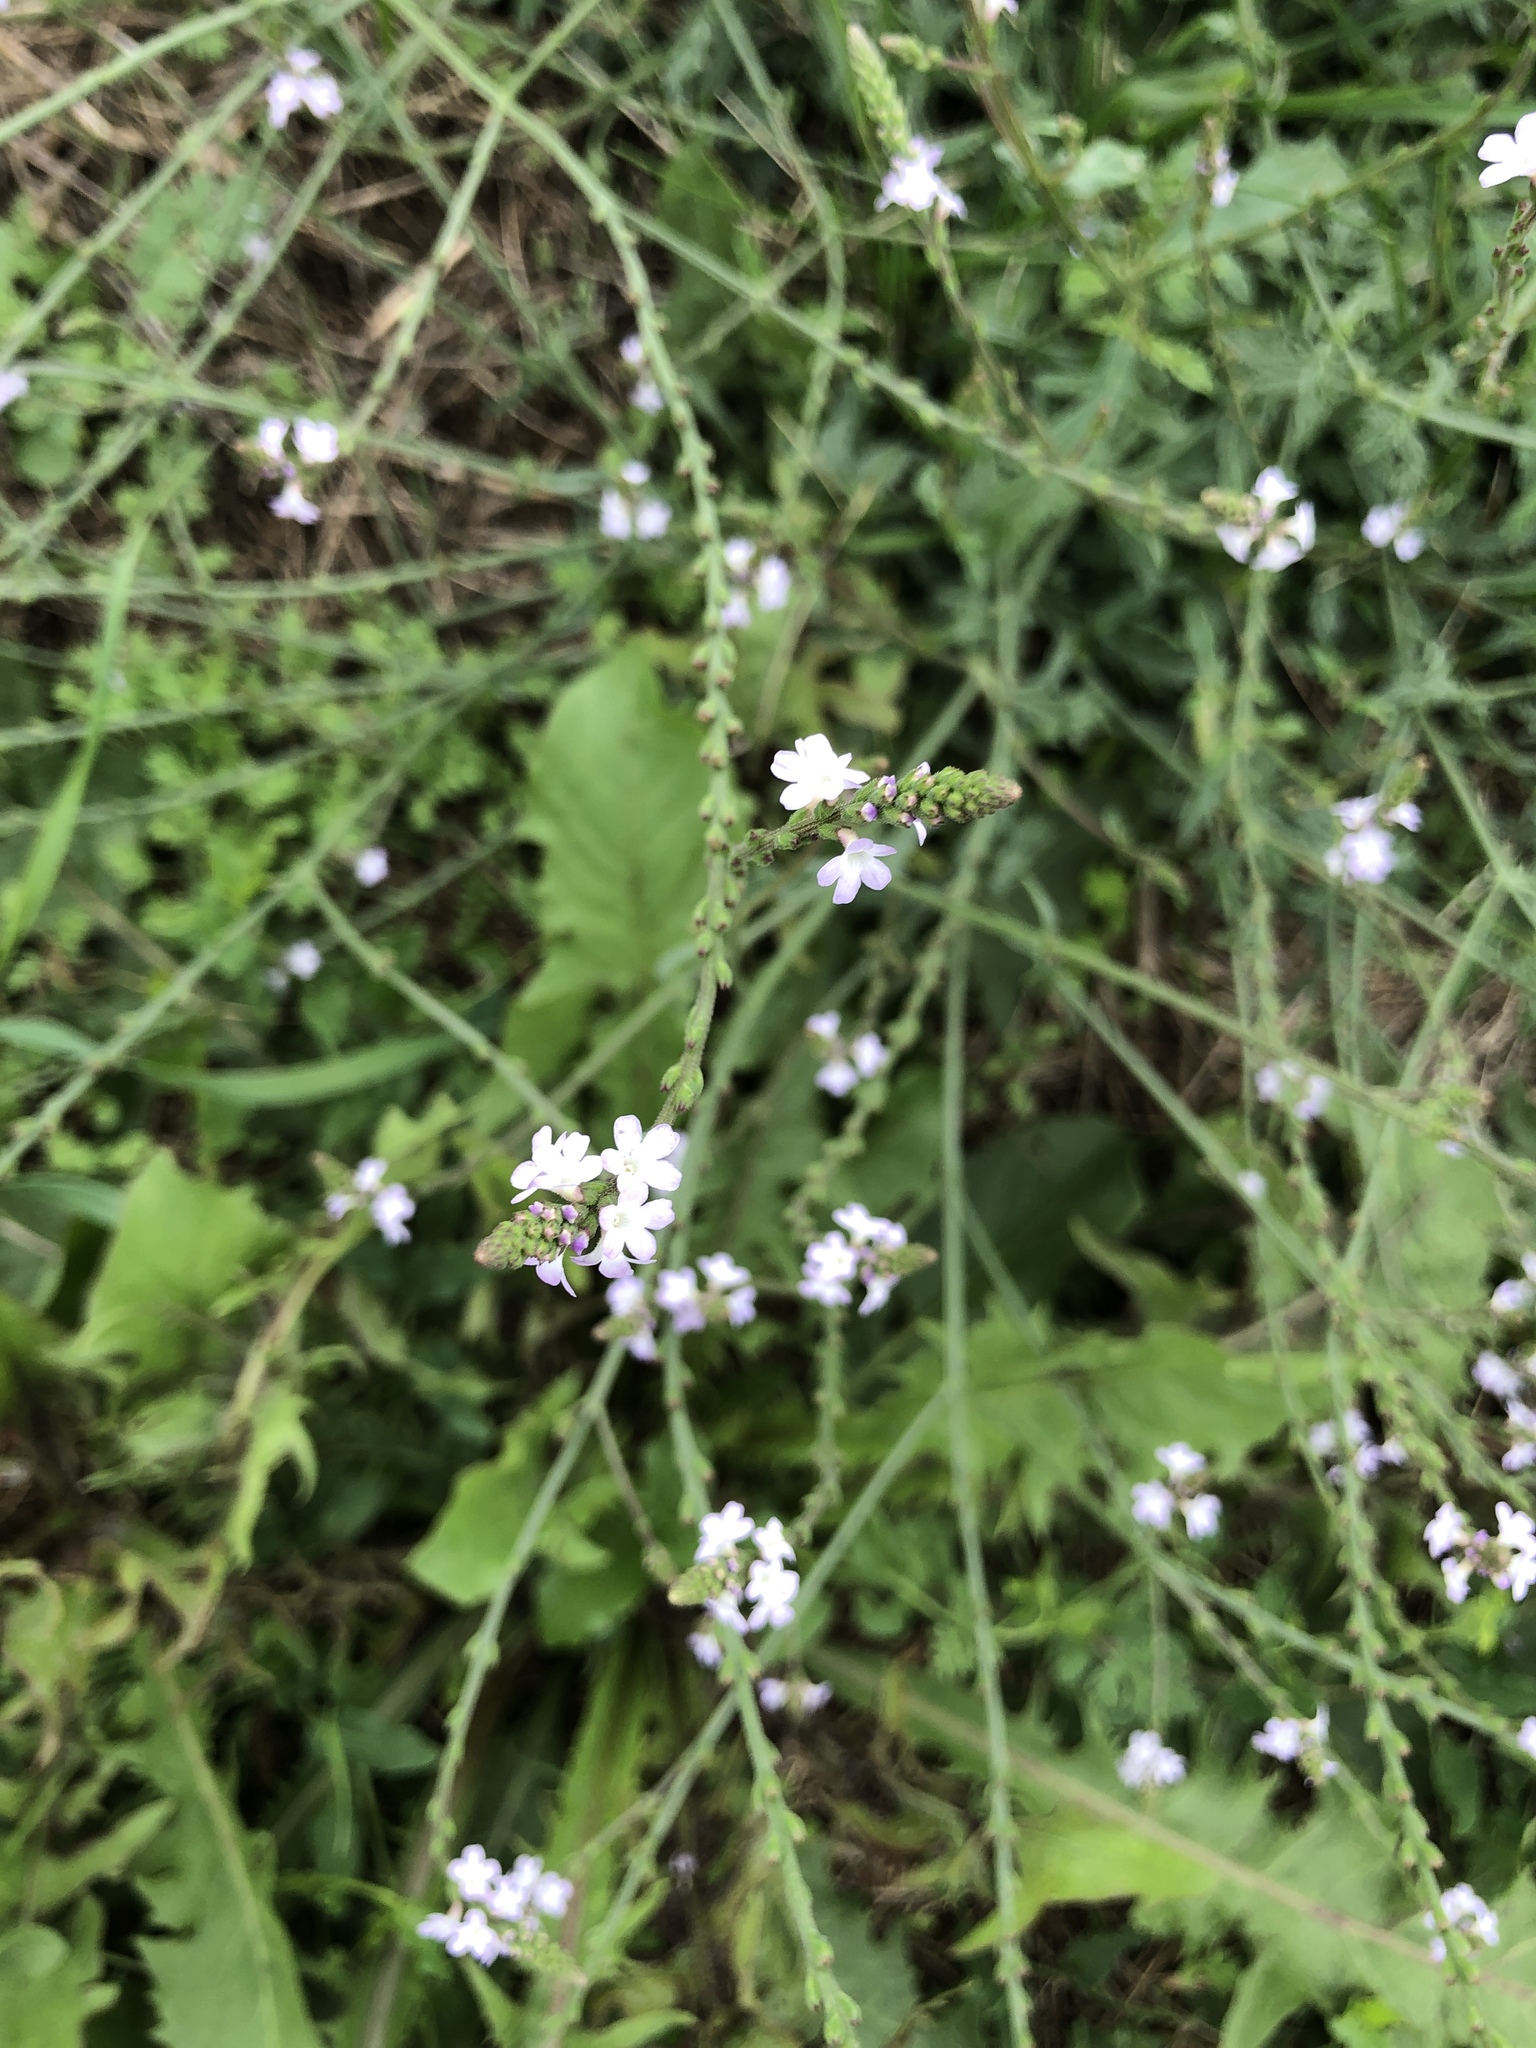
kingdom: Plantae
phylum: Tracheophyta
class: Magnoliopsida
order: Lamiales
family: Verbenaceae
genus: Verbena
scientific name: Verbena officinalis
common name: Vervain
